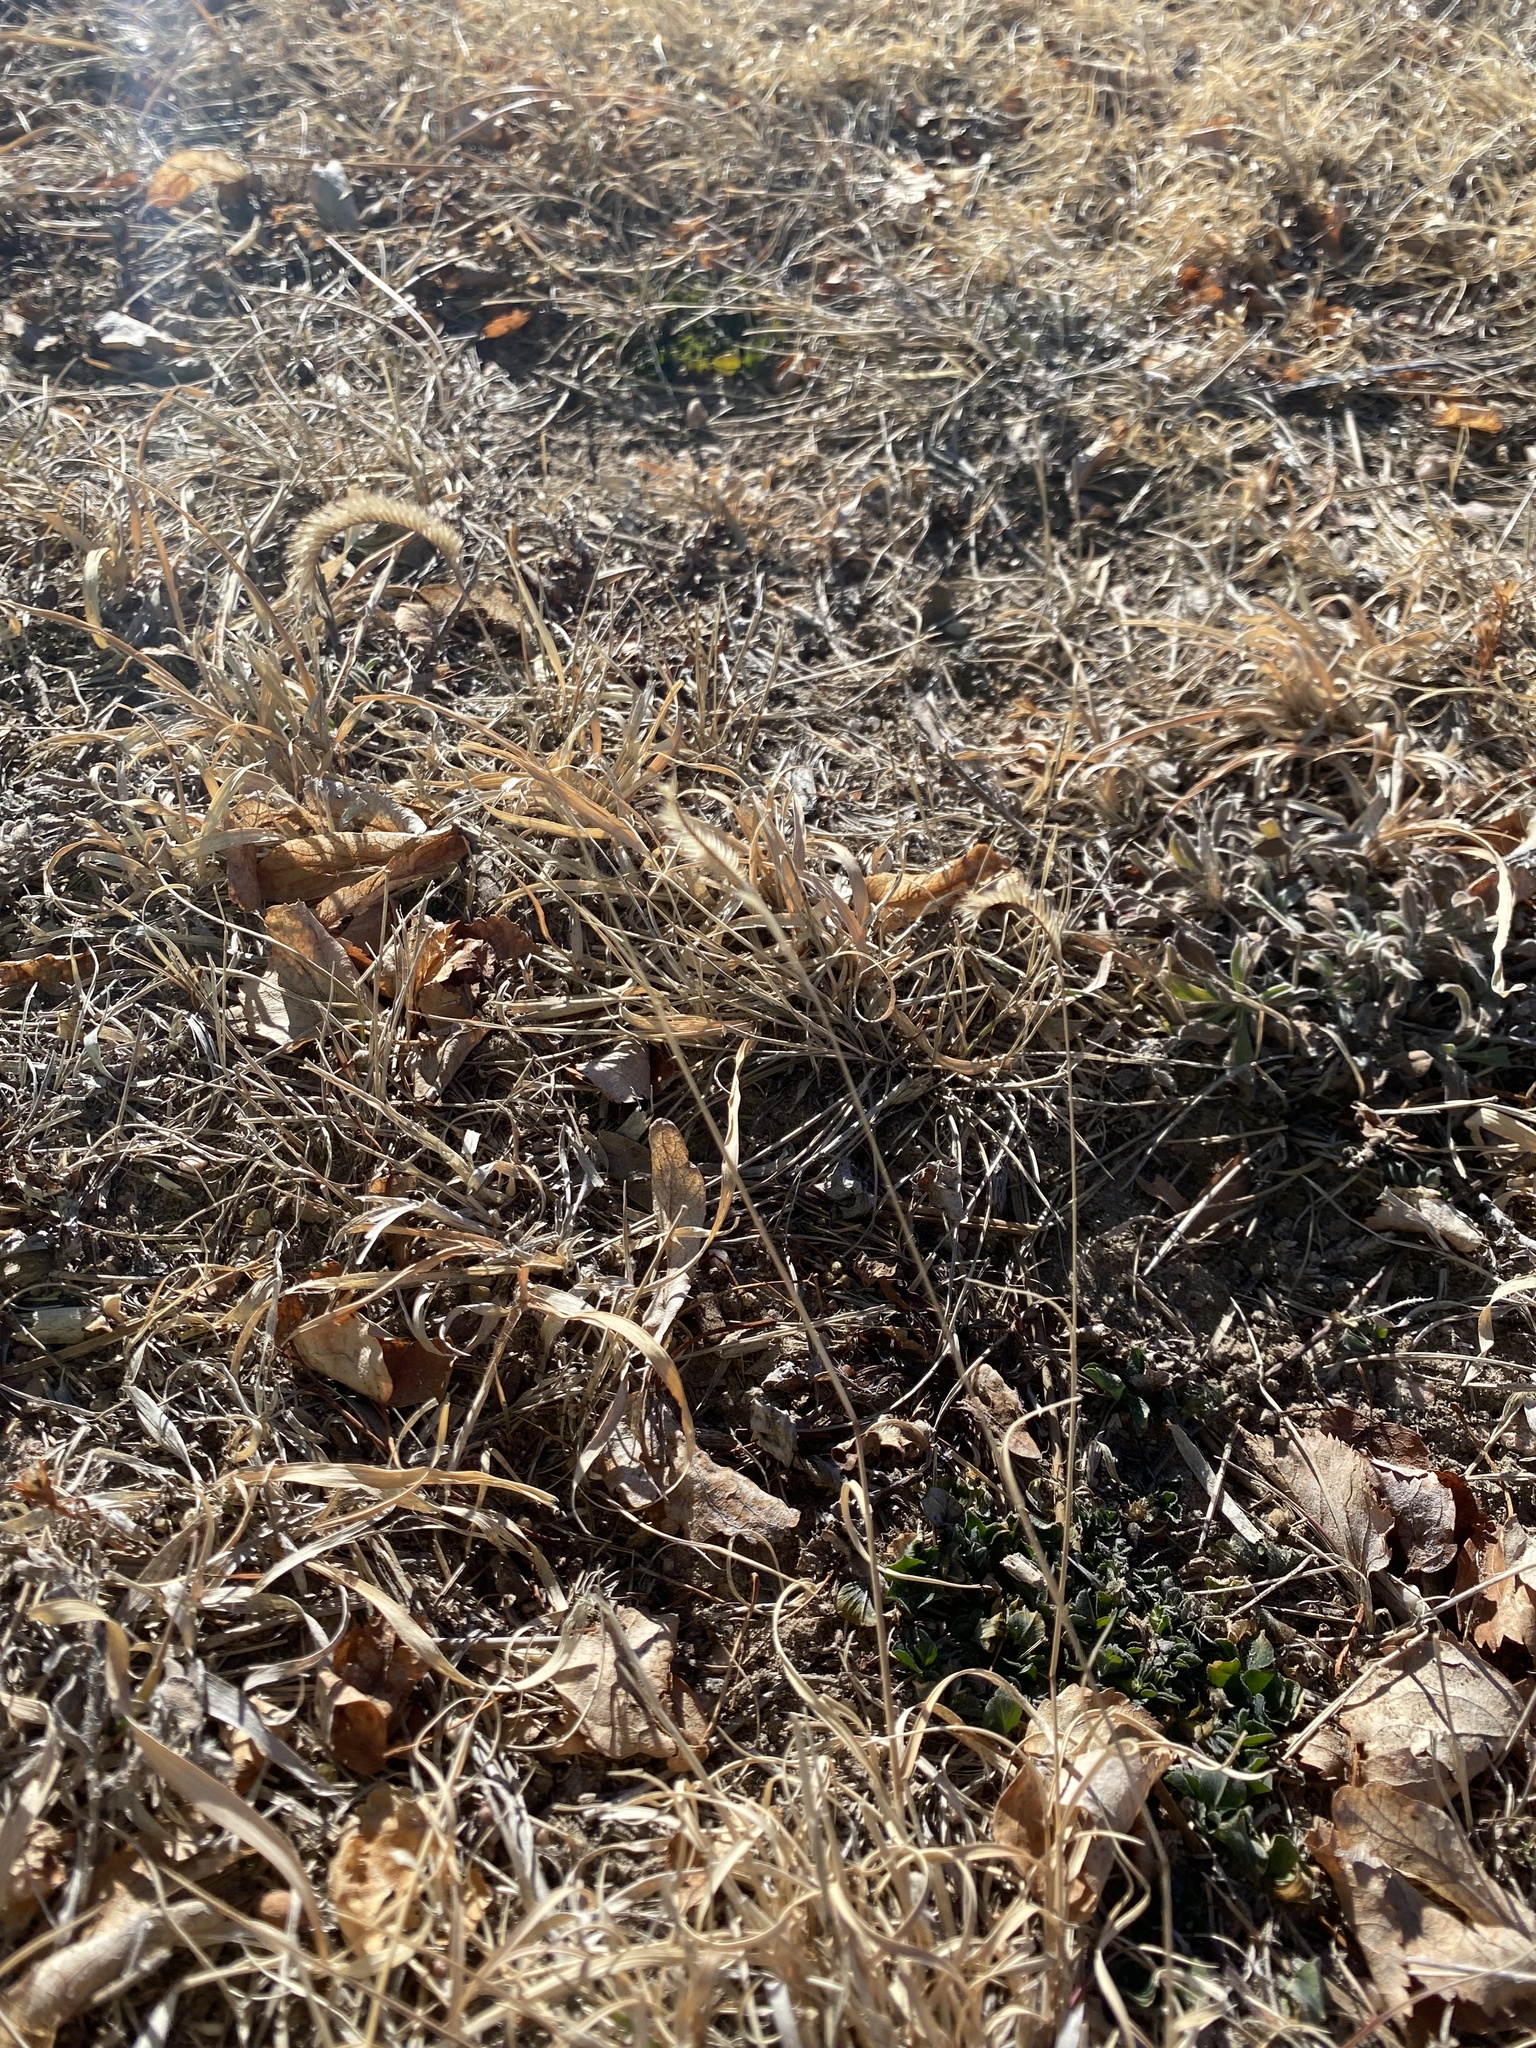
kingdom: Plantae
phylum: Tracheophyta
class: Liliopsida
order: Poales
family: Poaceae
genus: Bouteloua
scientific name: Bouteloua gracilis
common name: Blue grama
